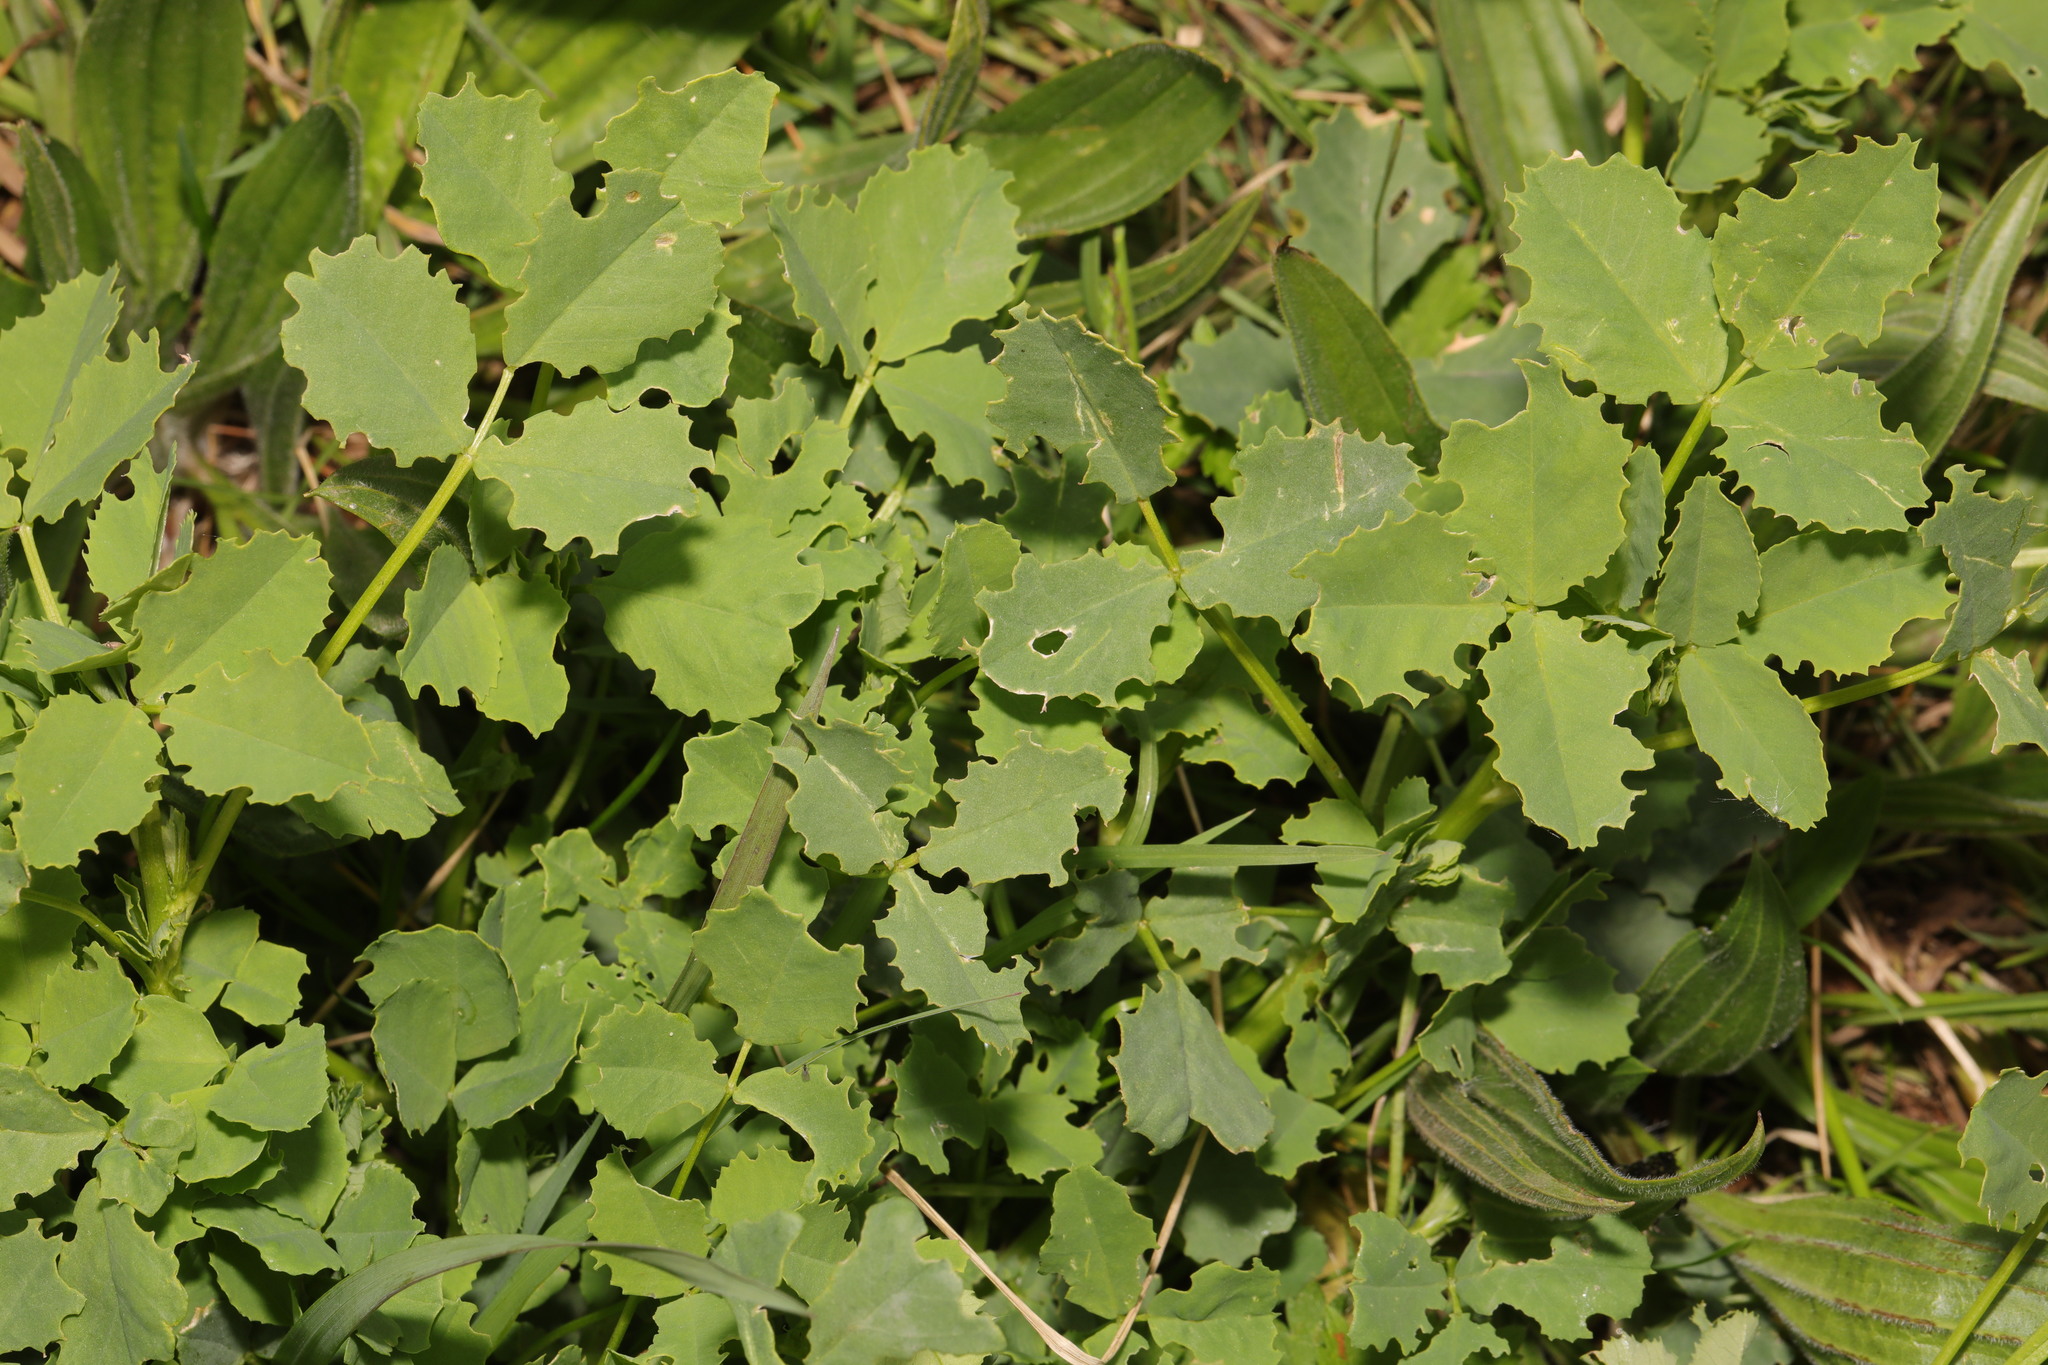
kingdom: Plantae
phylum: Tracheophyta
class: Magnoliopsida
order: Ranunculales
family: Papaveraceae
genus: Chelidonium
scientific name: Chelidonium majus
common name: Greater celandine
